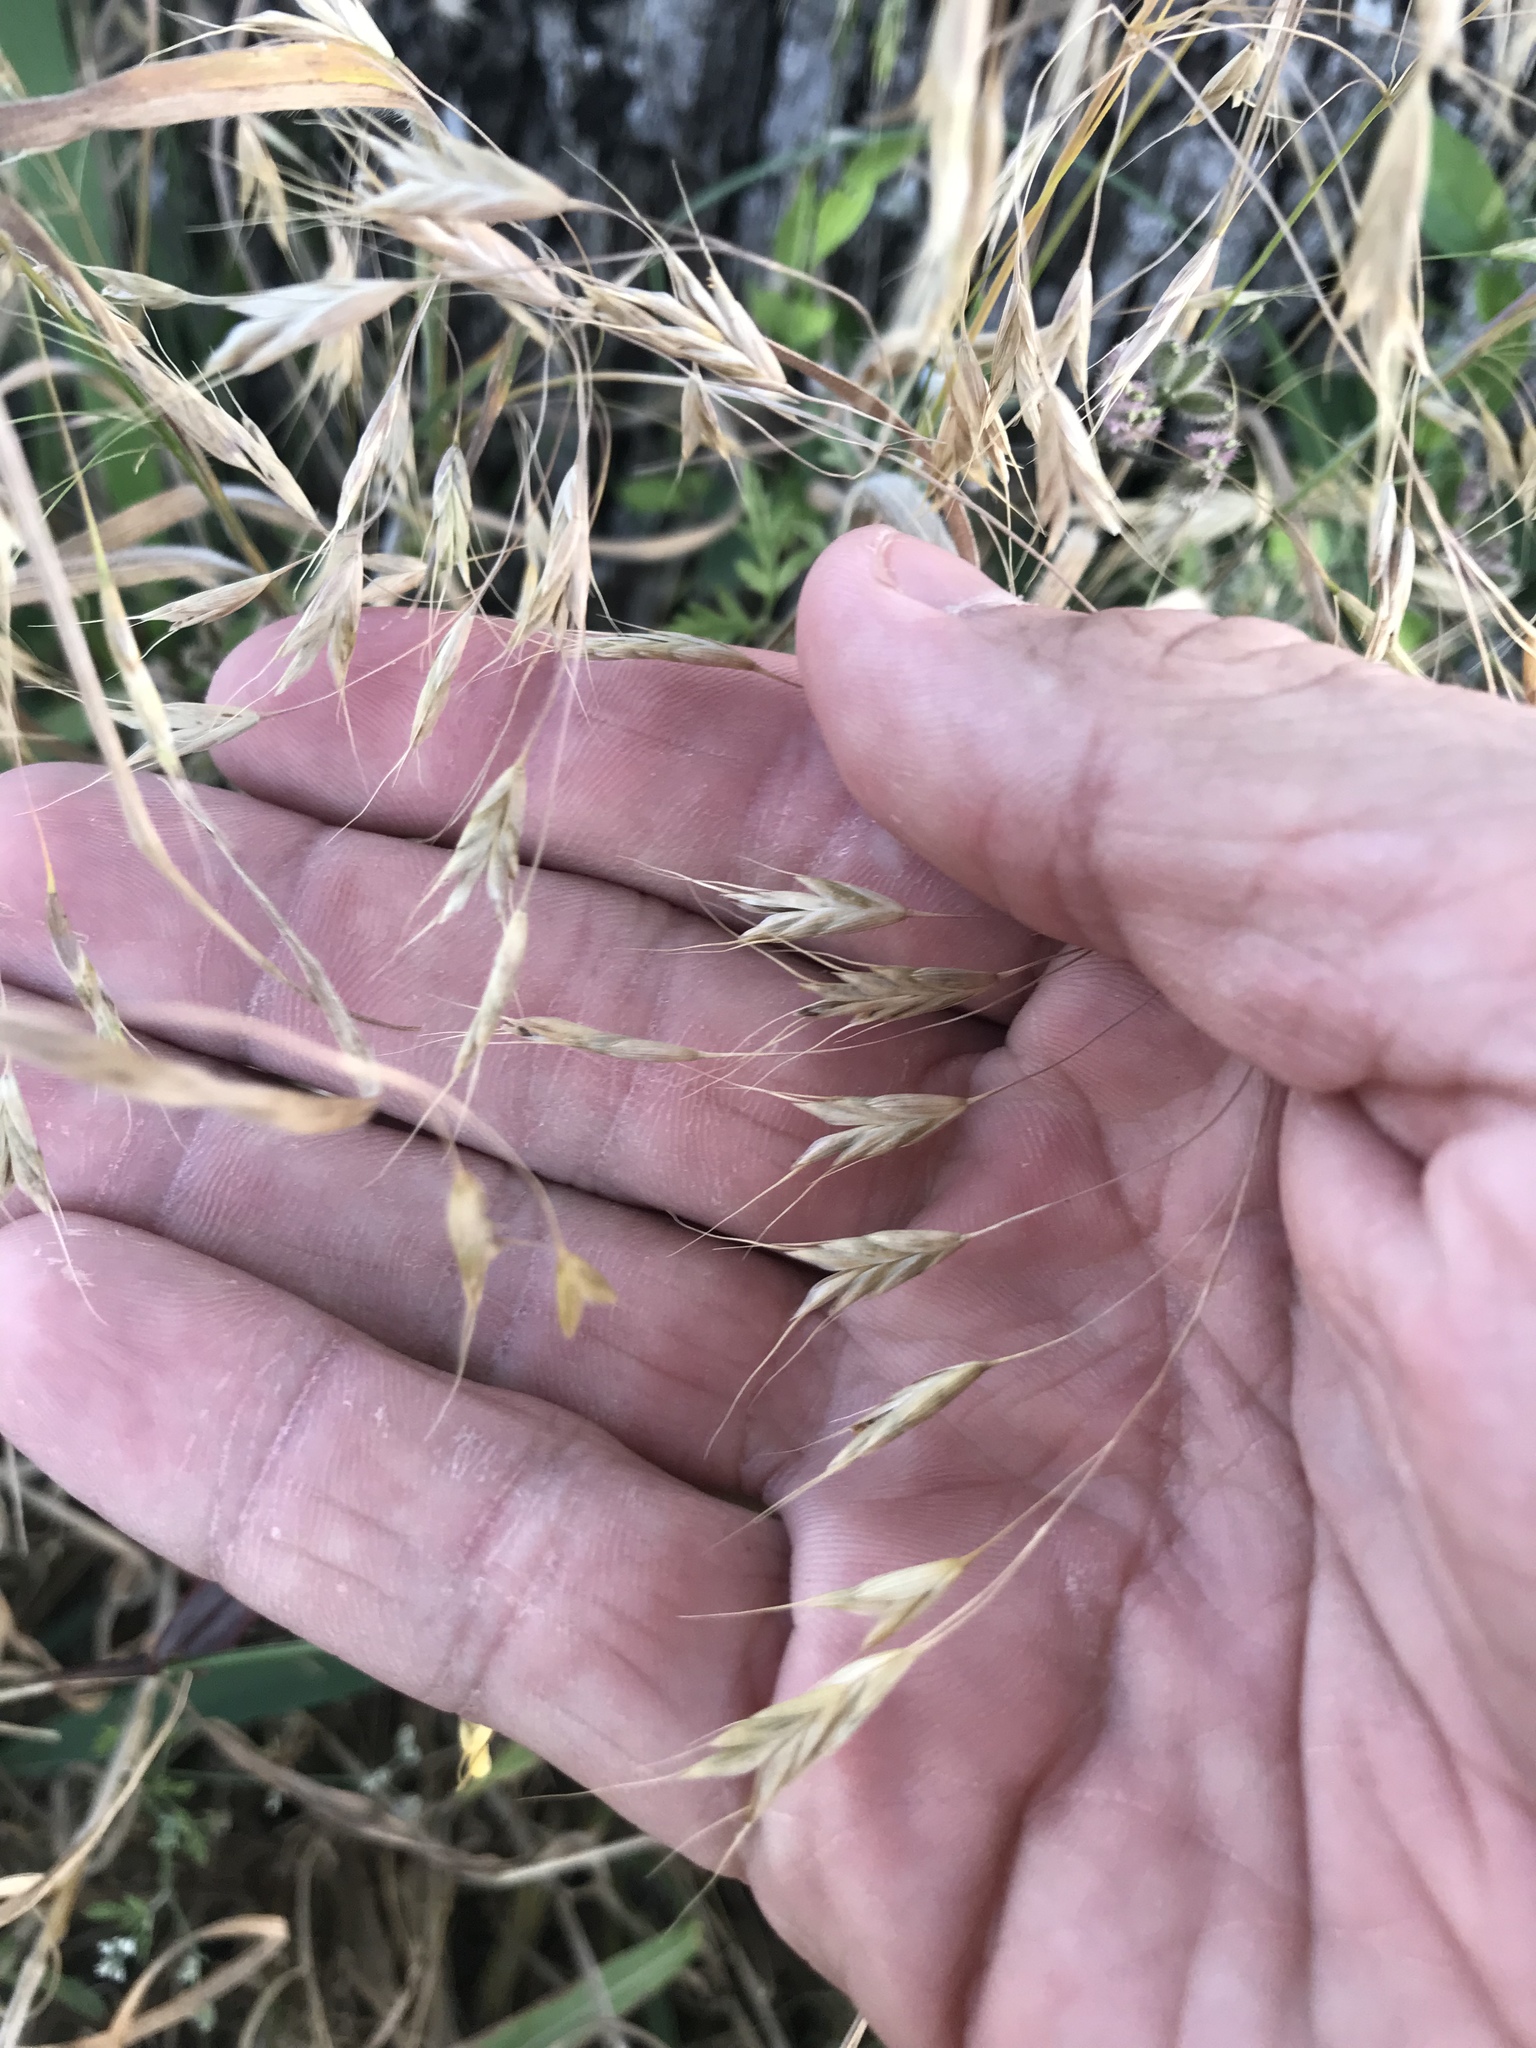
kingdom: Plantae
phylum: Tracheophyta
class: Liliopsida
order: Poales
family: Poaceae
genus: Bromus
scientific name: Bromus japonicus
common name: Japanese brome
